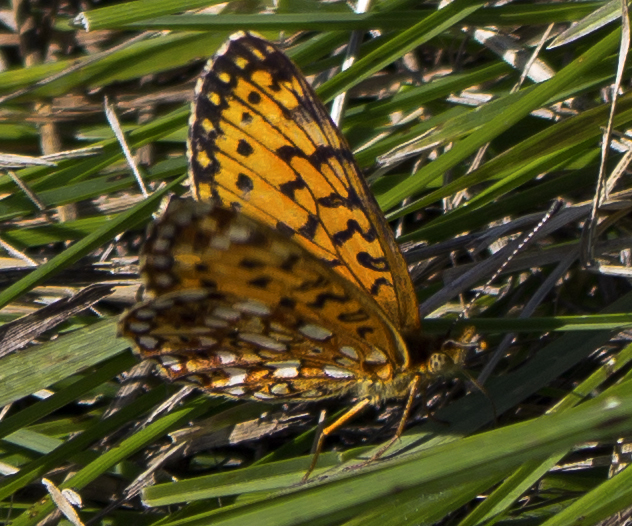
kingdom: Animalia
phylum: Arthropoda
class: Insecta
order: Lepidoptera
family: Nymphalidae
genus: Boloria
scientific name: Boloria
